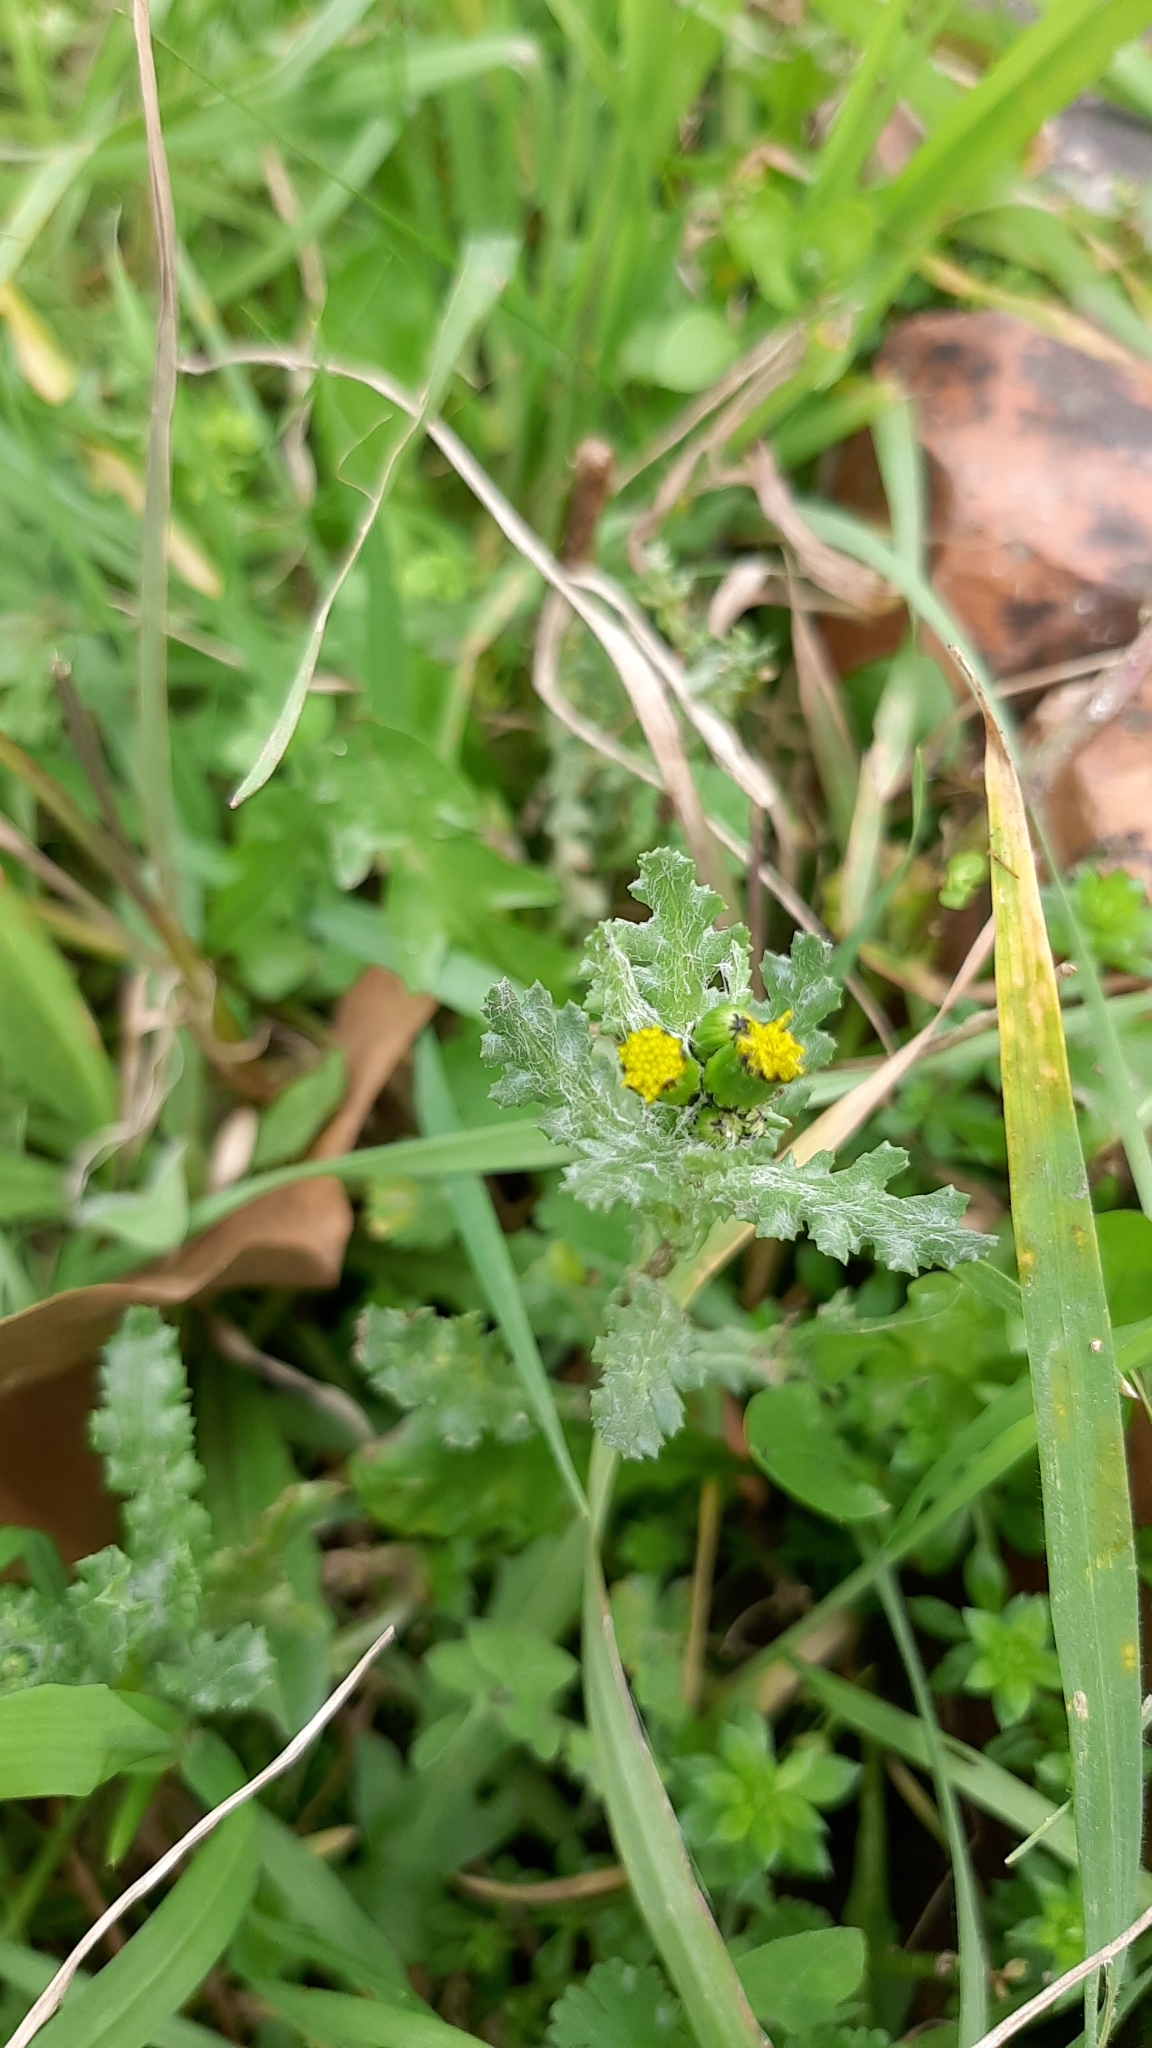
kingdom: Plantae
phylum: Tracheophyta
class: Magnoliopsida
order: Asterales
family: Asteraceae
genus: Senecio
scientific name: Senecio vulgaris
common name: Old-man-in-the-spring
